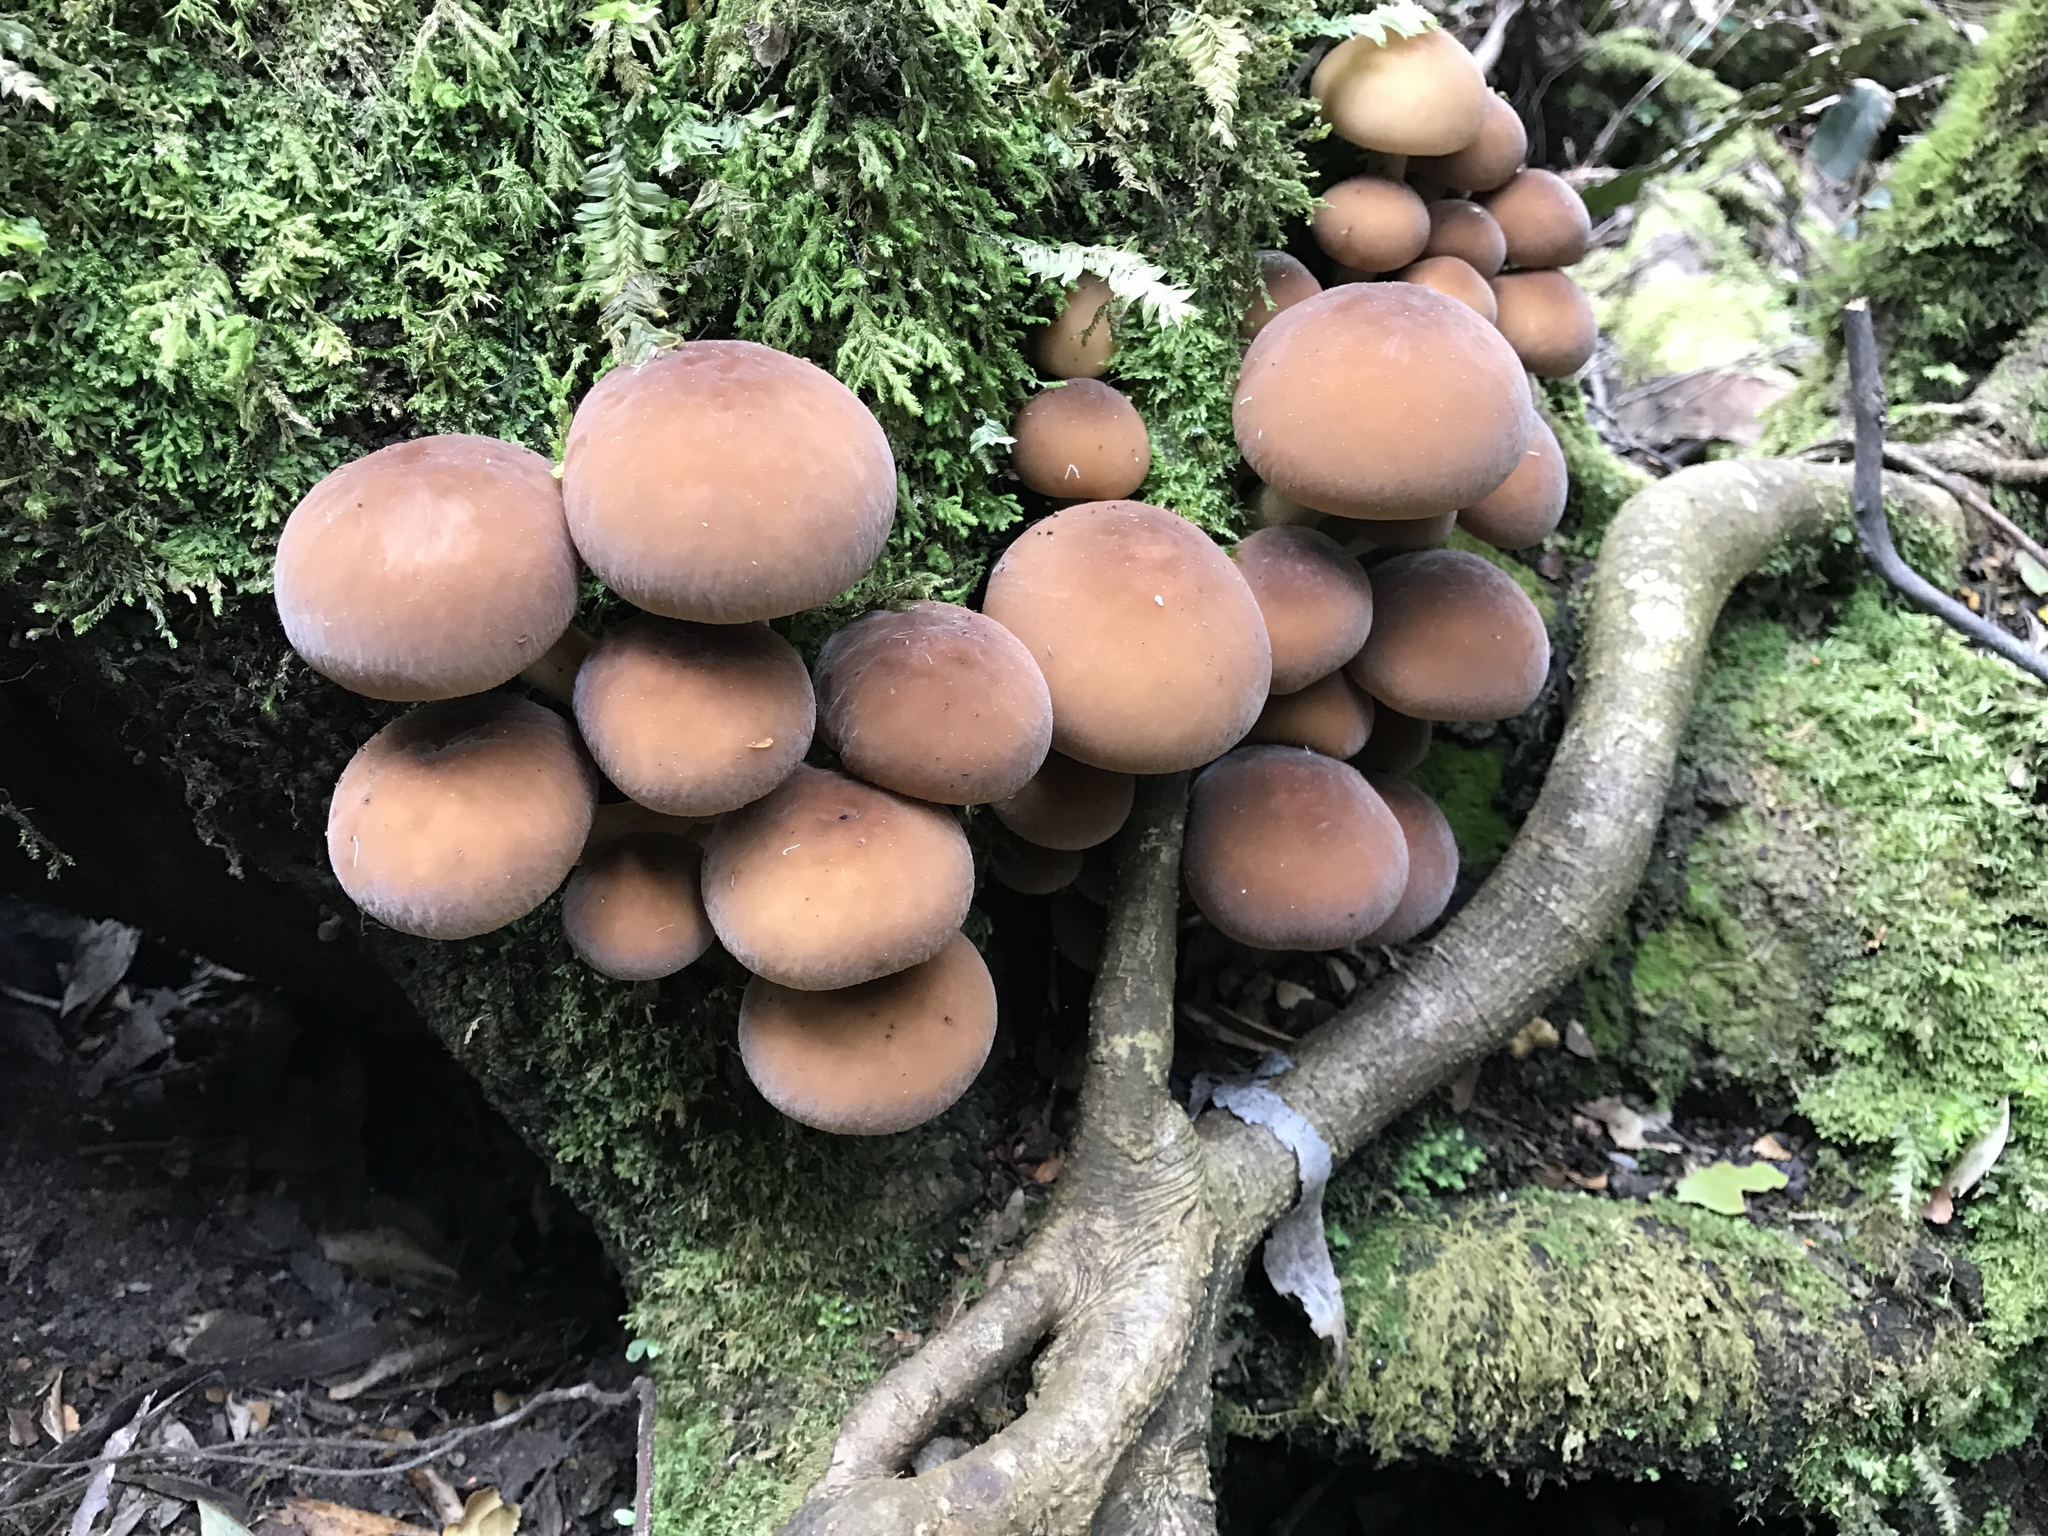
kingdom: Fungi
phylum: Basidiomycota
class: Agaricomycetes
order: Agaricales
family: Tubariaceae
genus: Cyclocybe
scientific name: Cyclocybe parasitica
